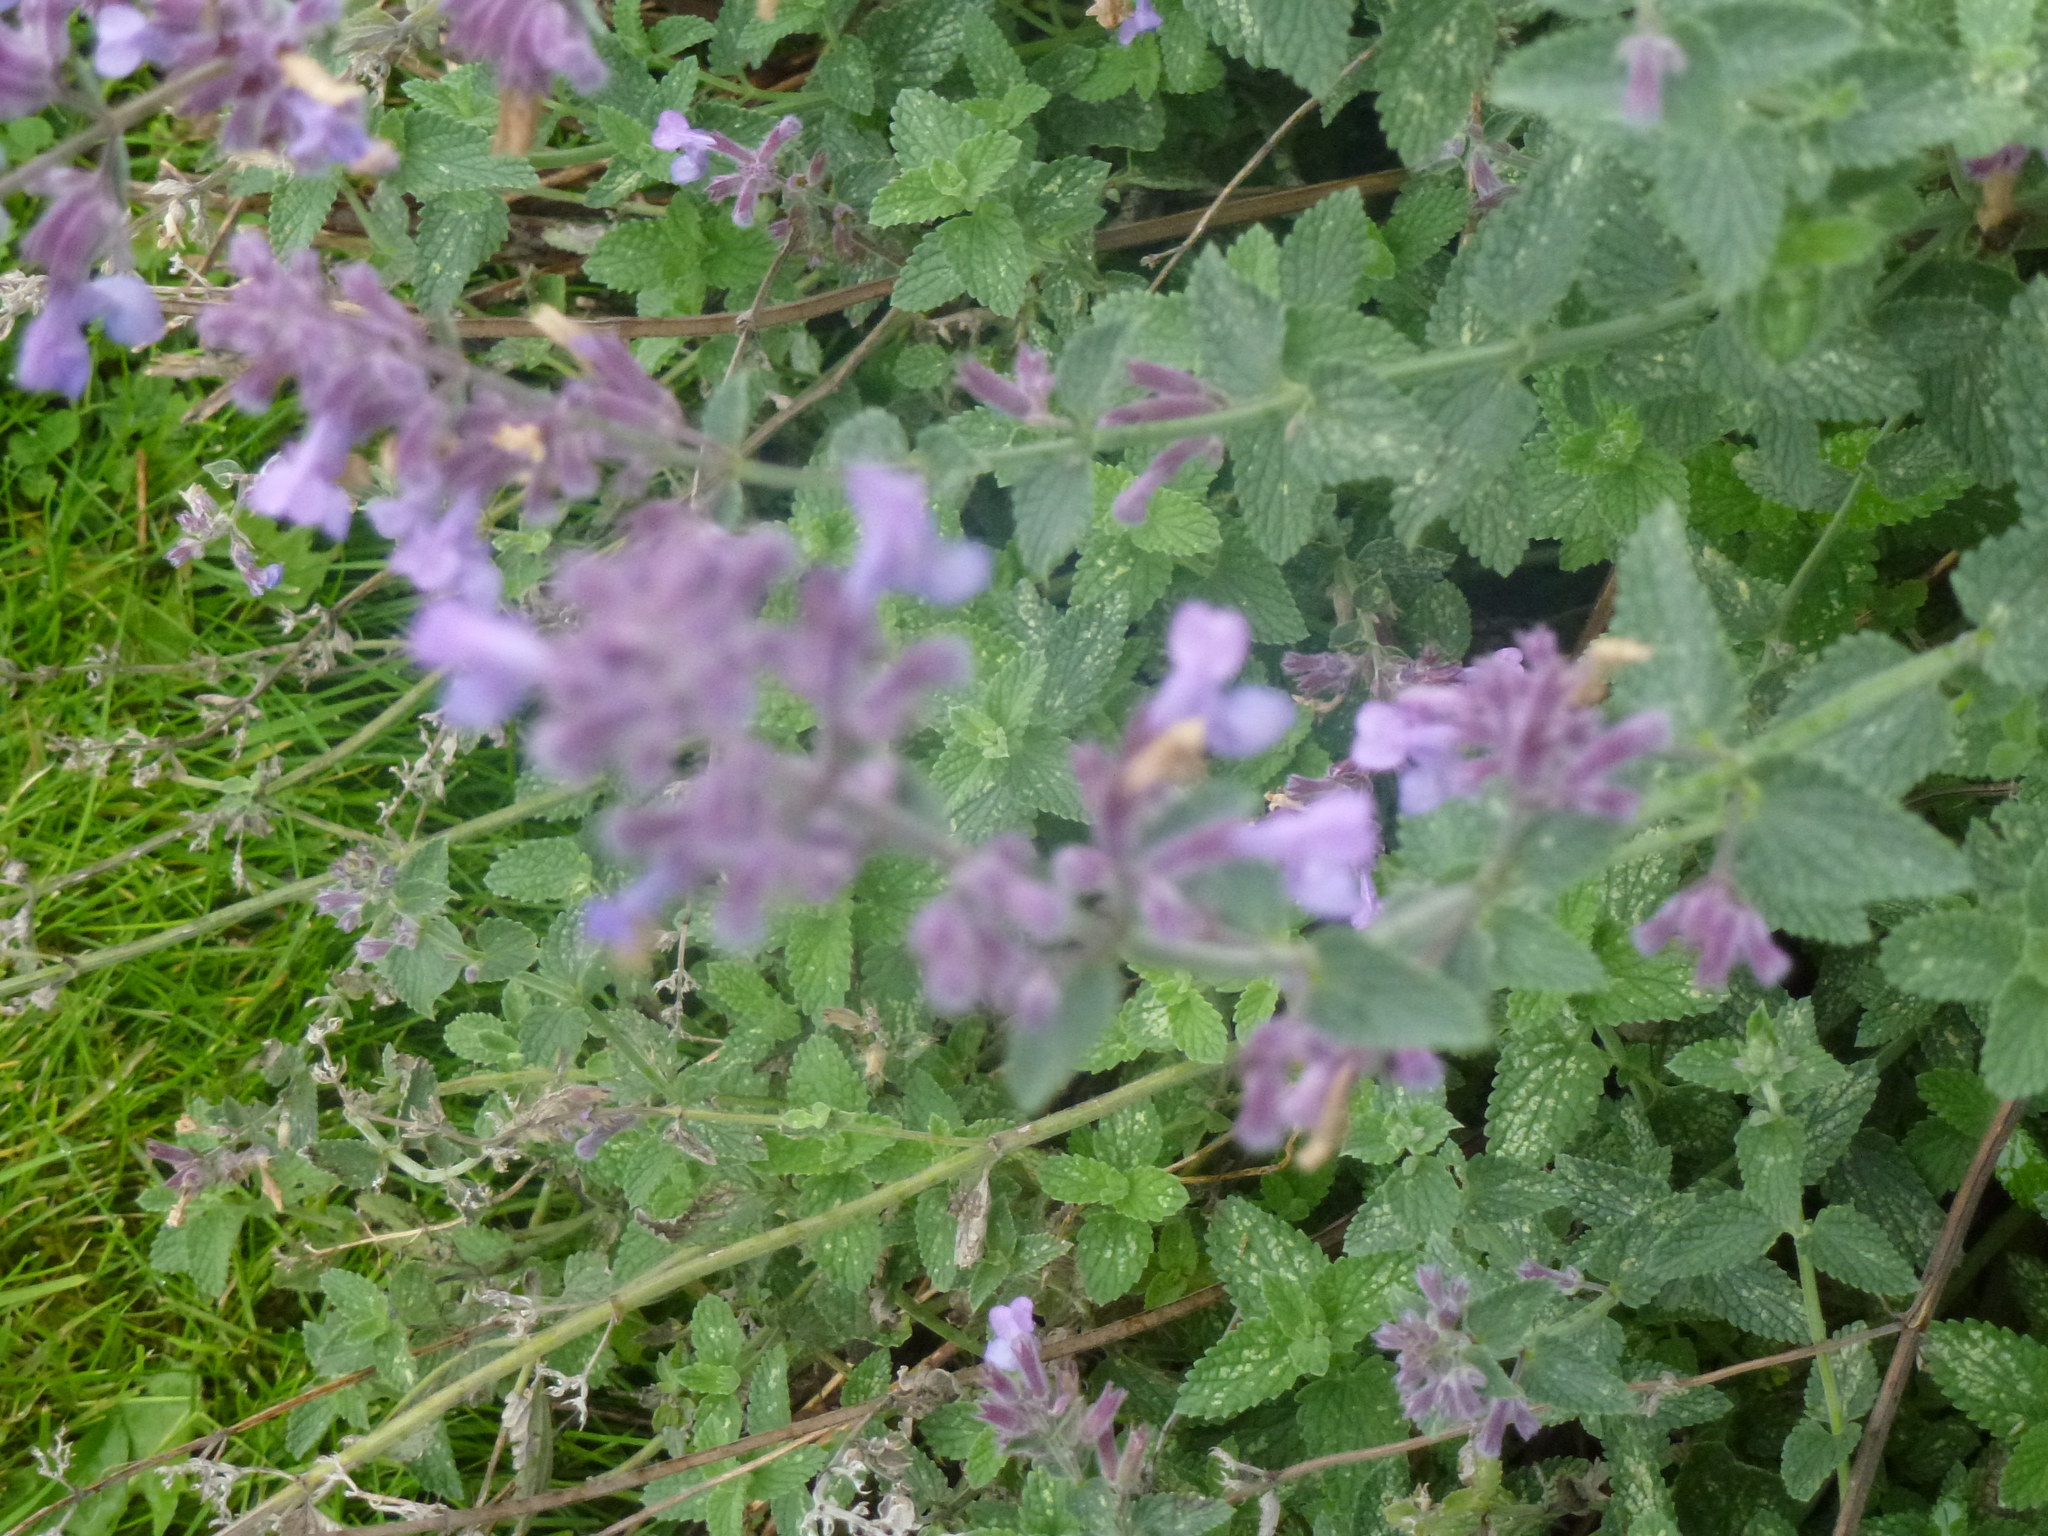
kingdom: Plantae
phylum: Tracheophyta
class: Magnoliopsida
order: Lamiales
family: Lamiaceae
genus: Nepeta
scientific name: Nepeta faassenii
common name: Catmint
